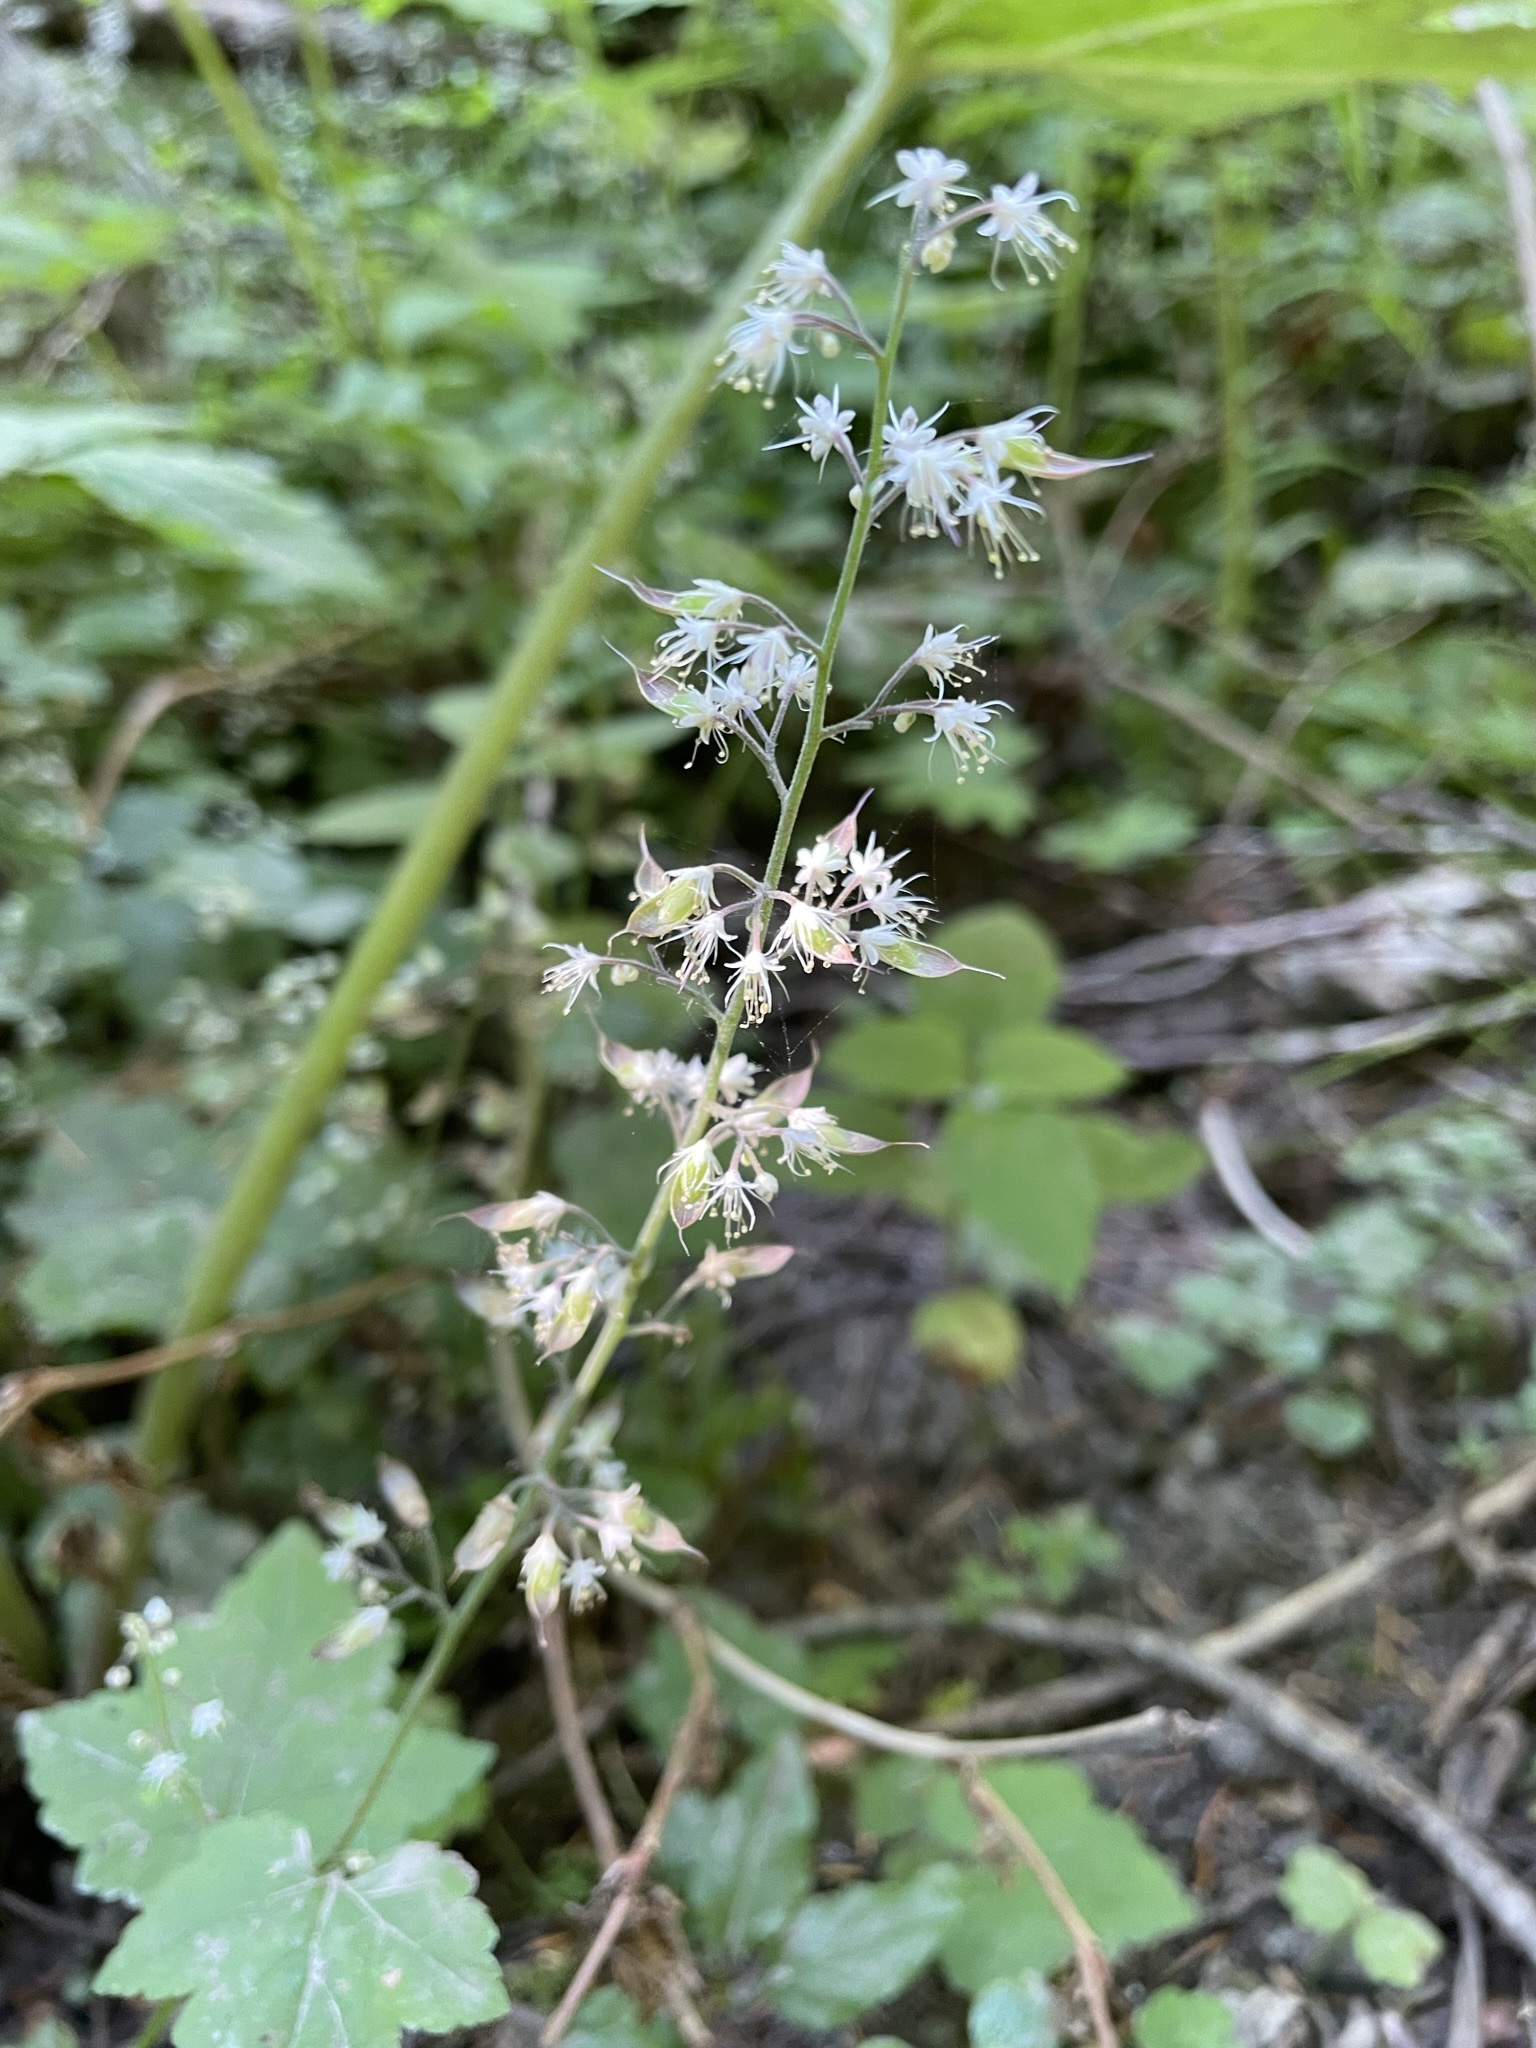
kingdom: Plantae
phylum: Tracheophyta
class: Magnoliopsida
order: Saxifragales
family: Saxifragaceae
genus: Tiarella
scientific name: Tiarella trifoliata
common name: Sugar-scoop
